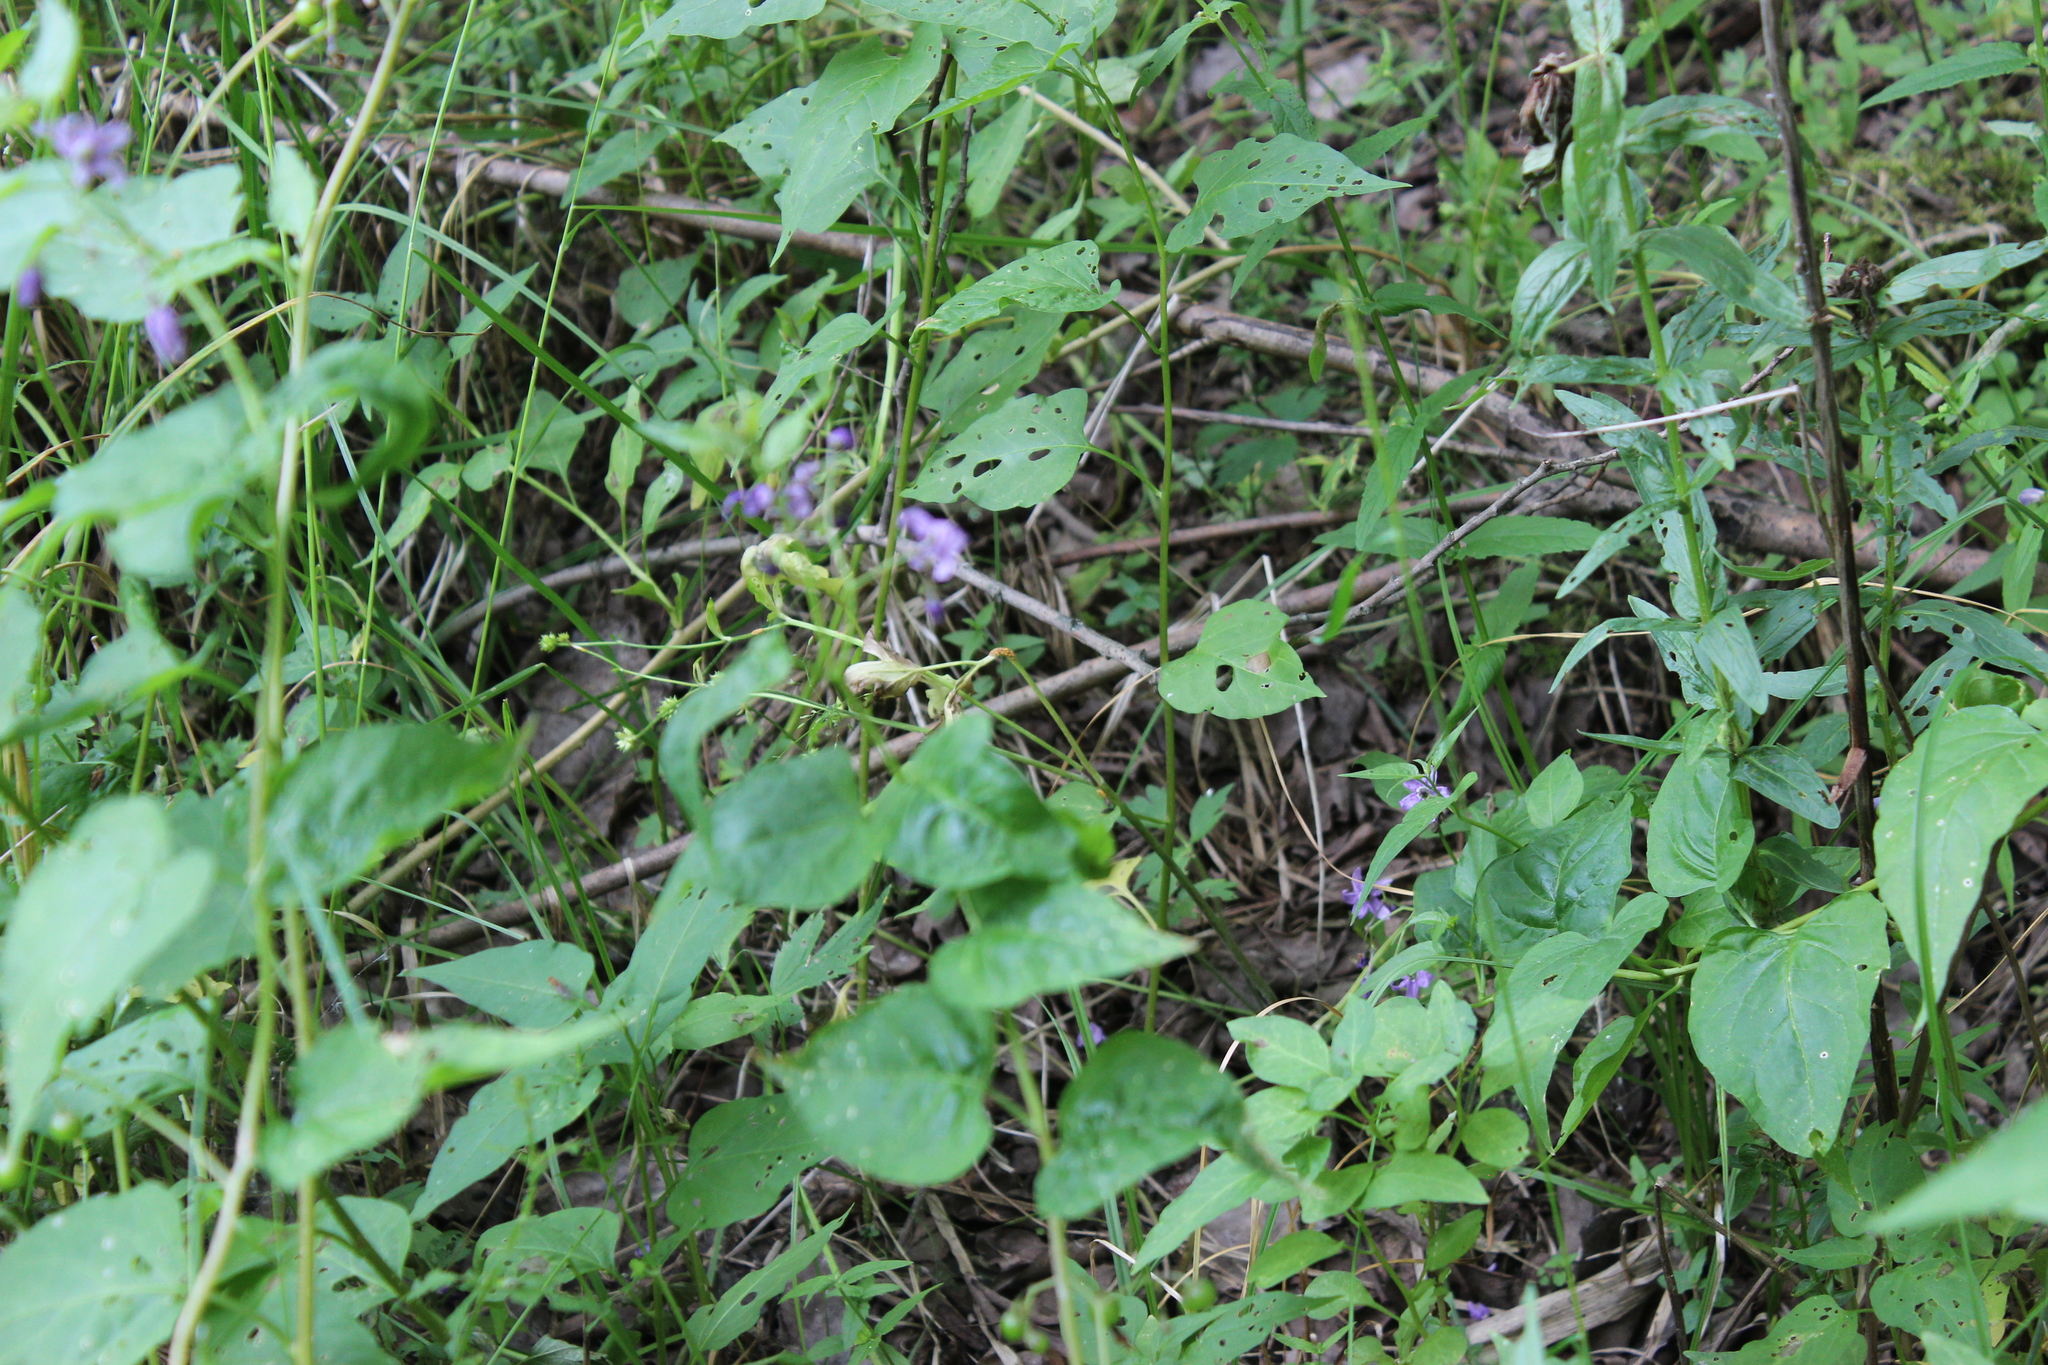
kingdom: Plantae
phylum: Tracheophyta
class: Magnoliopsida
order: Solanales
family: Solanaceae
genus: Solanum
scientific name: Solanum dulcamara
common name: Climbing nightshade
